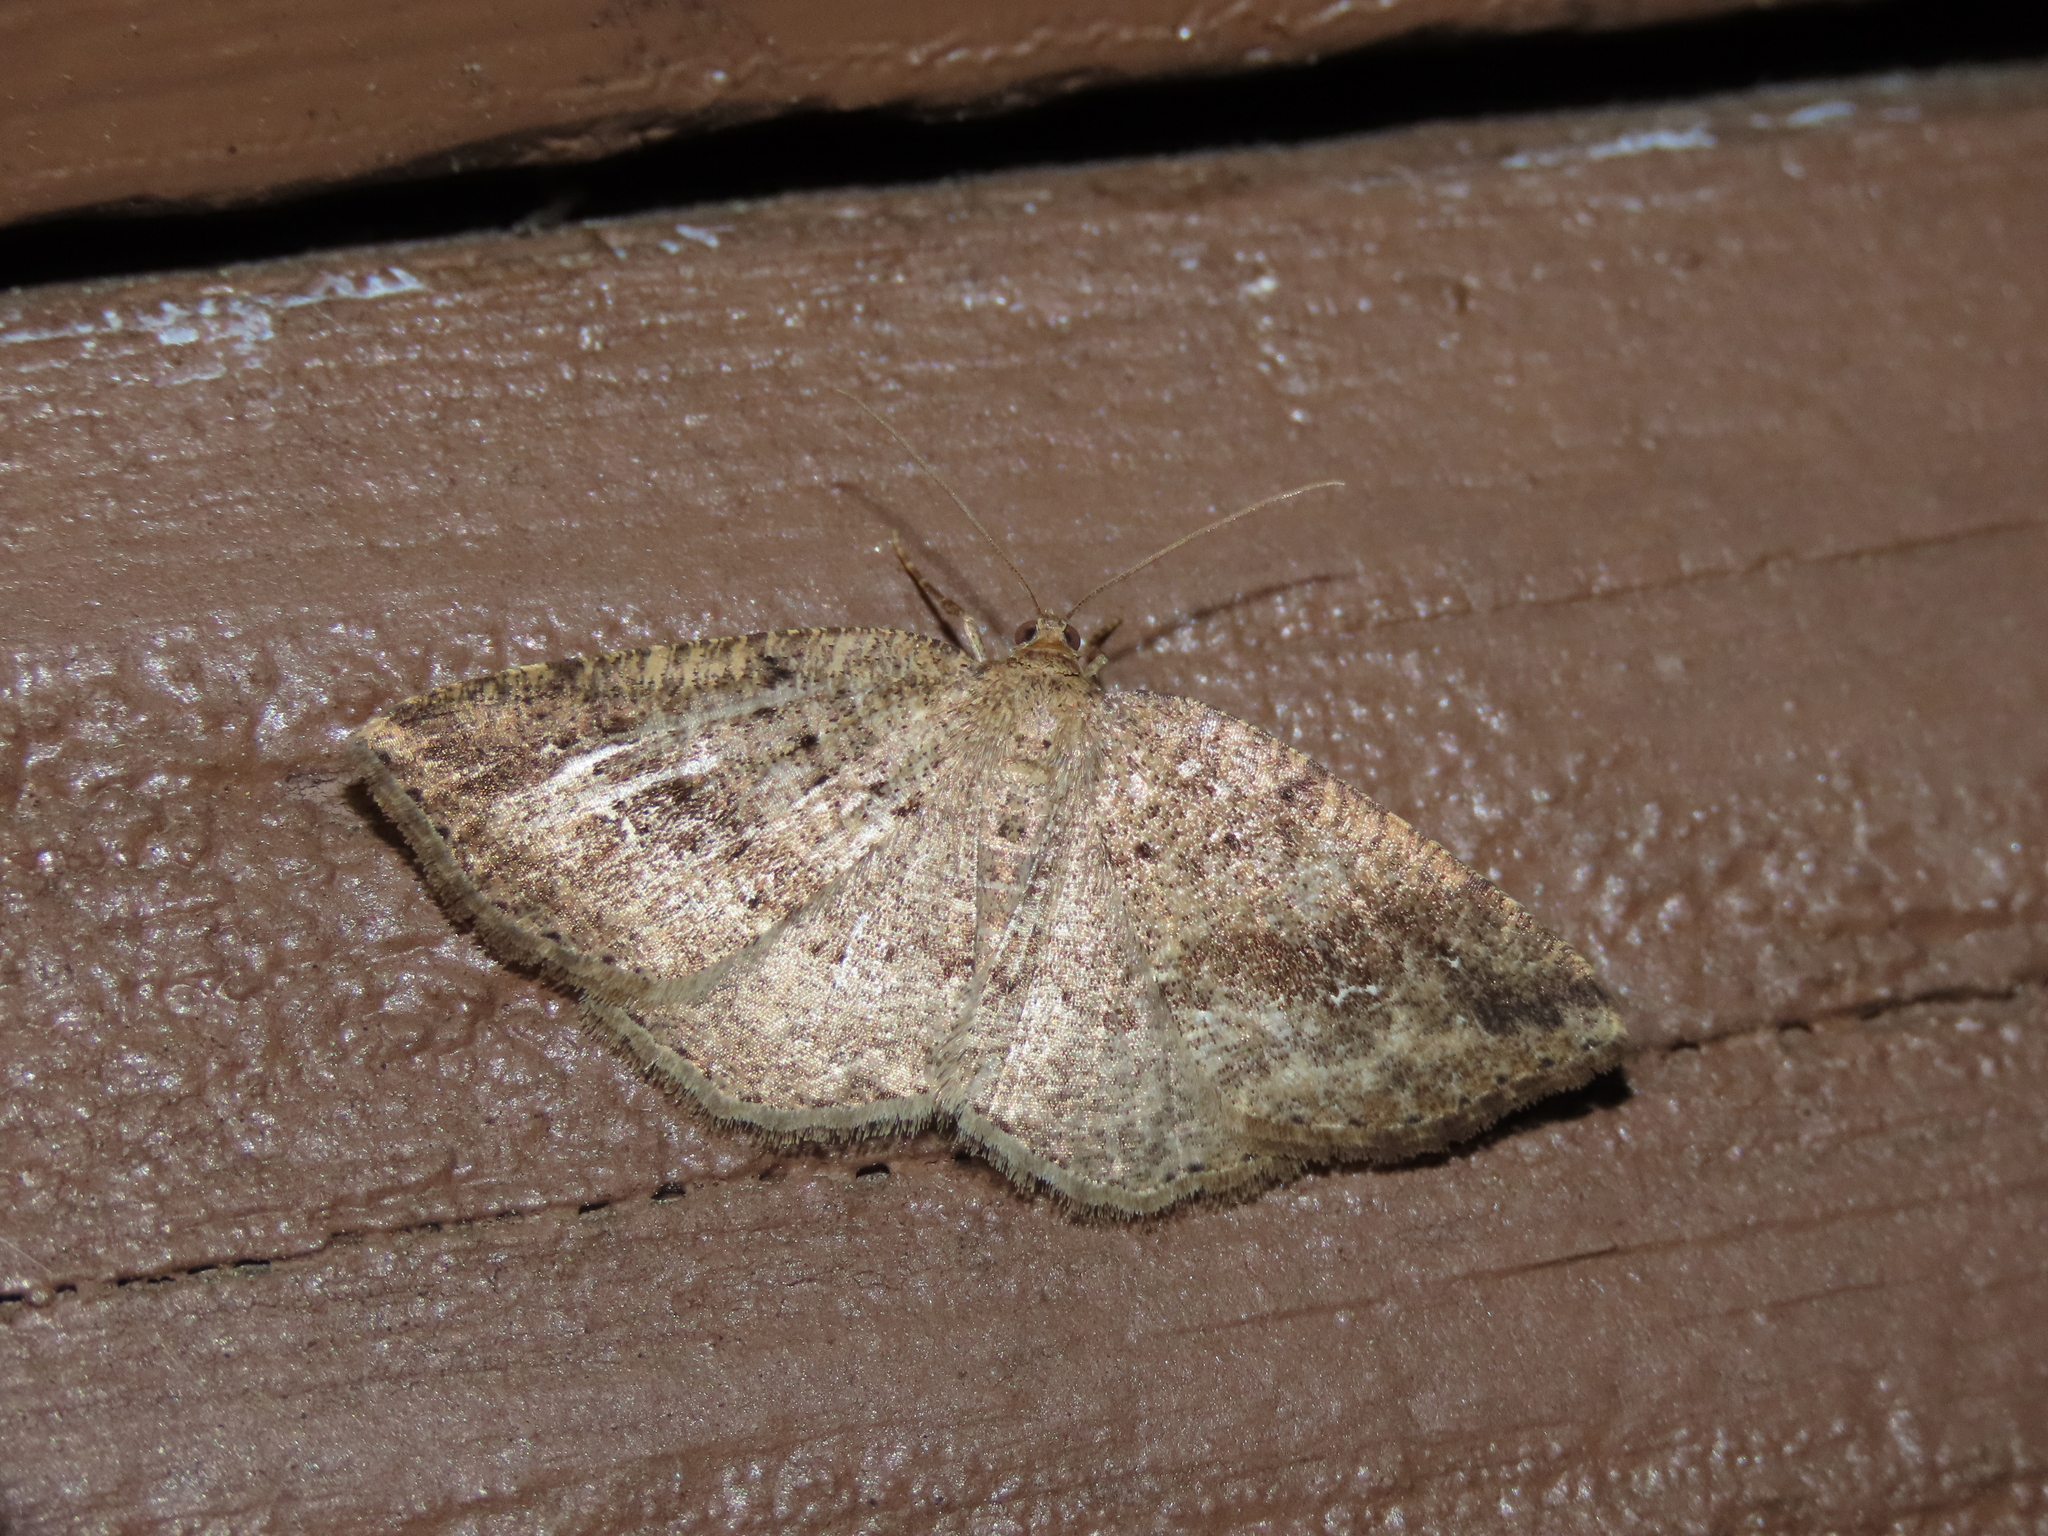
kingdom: Animalia
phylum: Arthropoda
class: Insecta
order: Lepidoptera
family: Geometridae
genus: Homochlodes
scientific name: Homochlodes fritillaria
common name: Pale homochlodes
